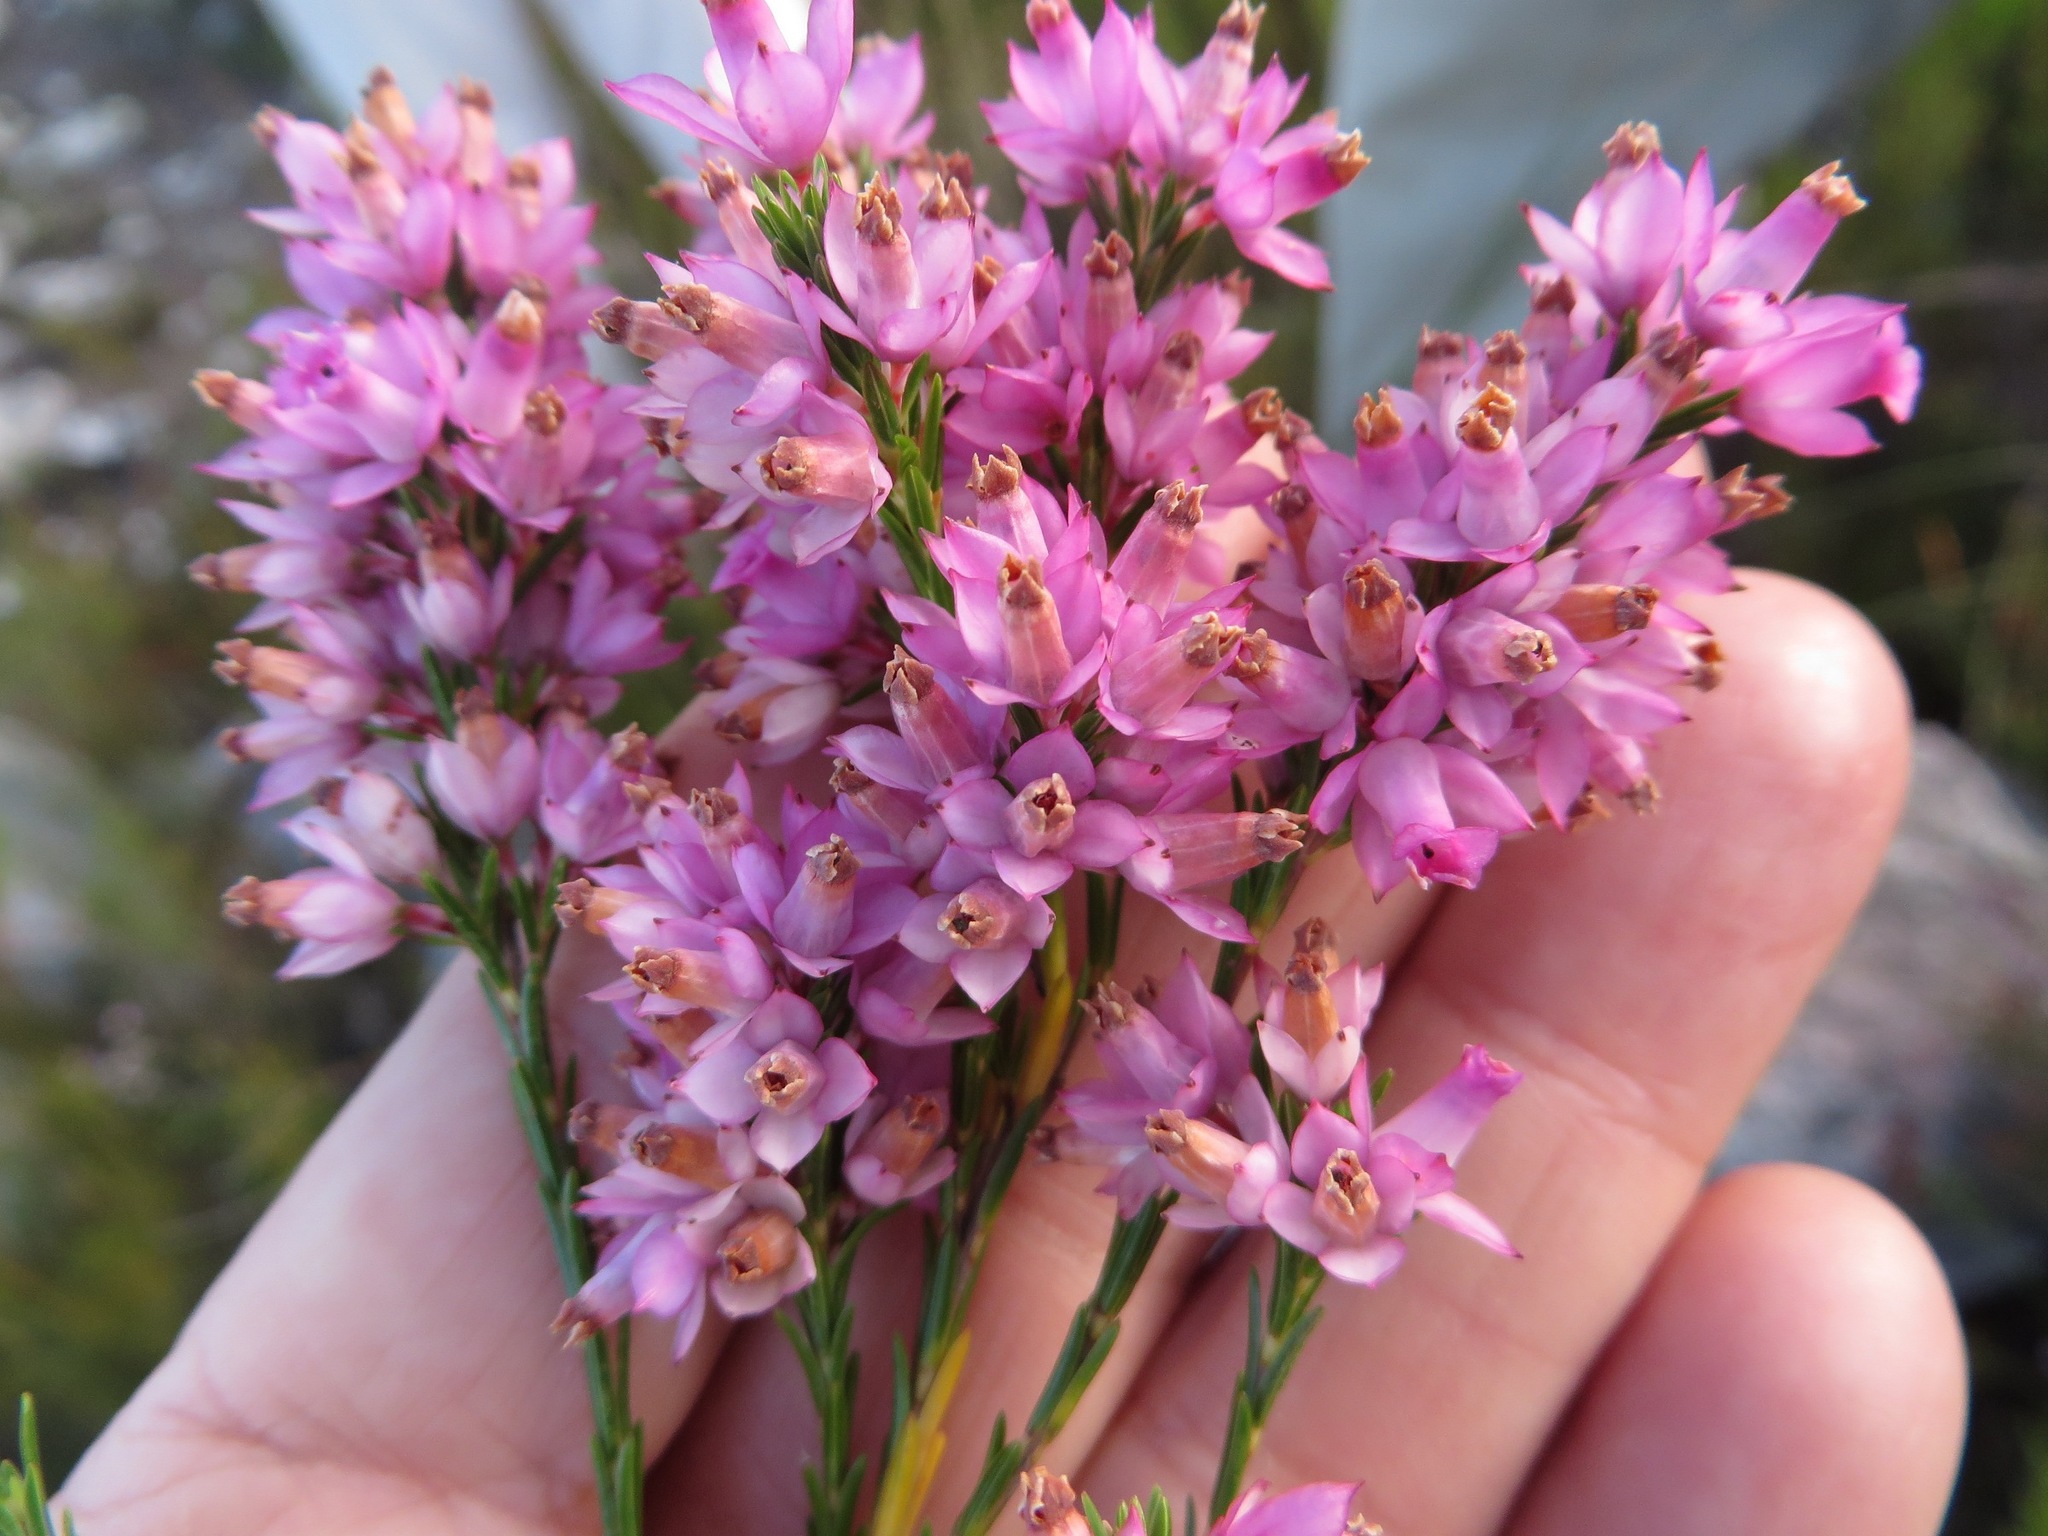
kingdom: Plantae
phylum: Tracheophyta
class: Magnoliopsida
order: Ericales
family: Ericaceae
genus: Erica
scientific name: Erica vogelpoelii
